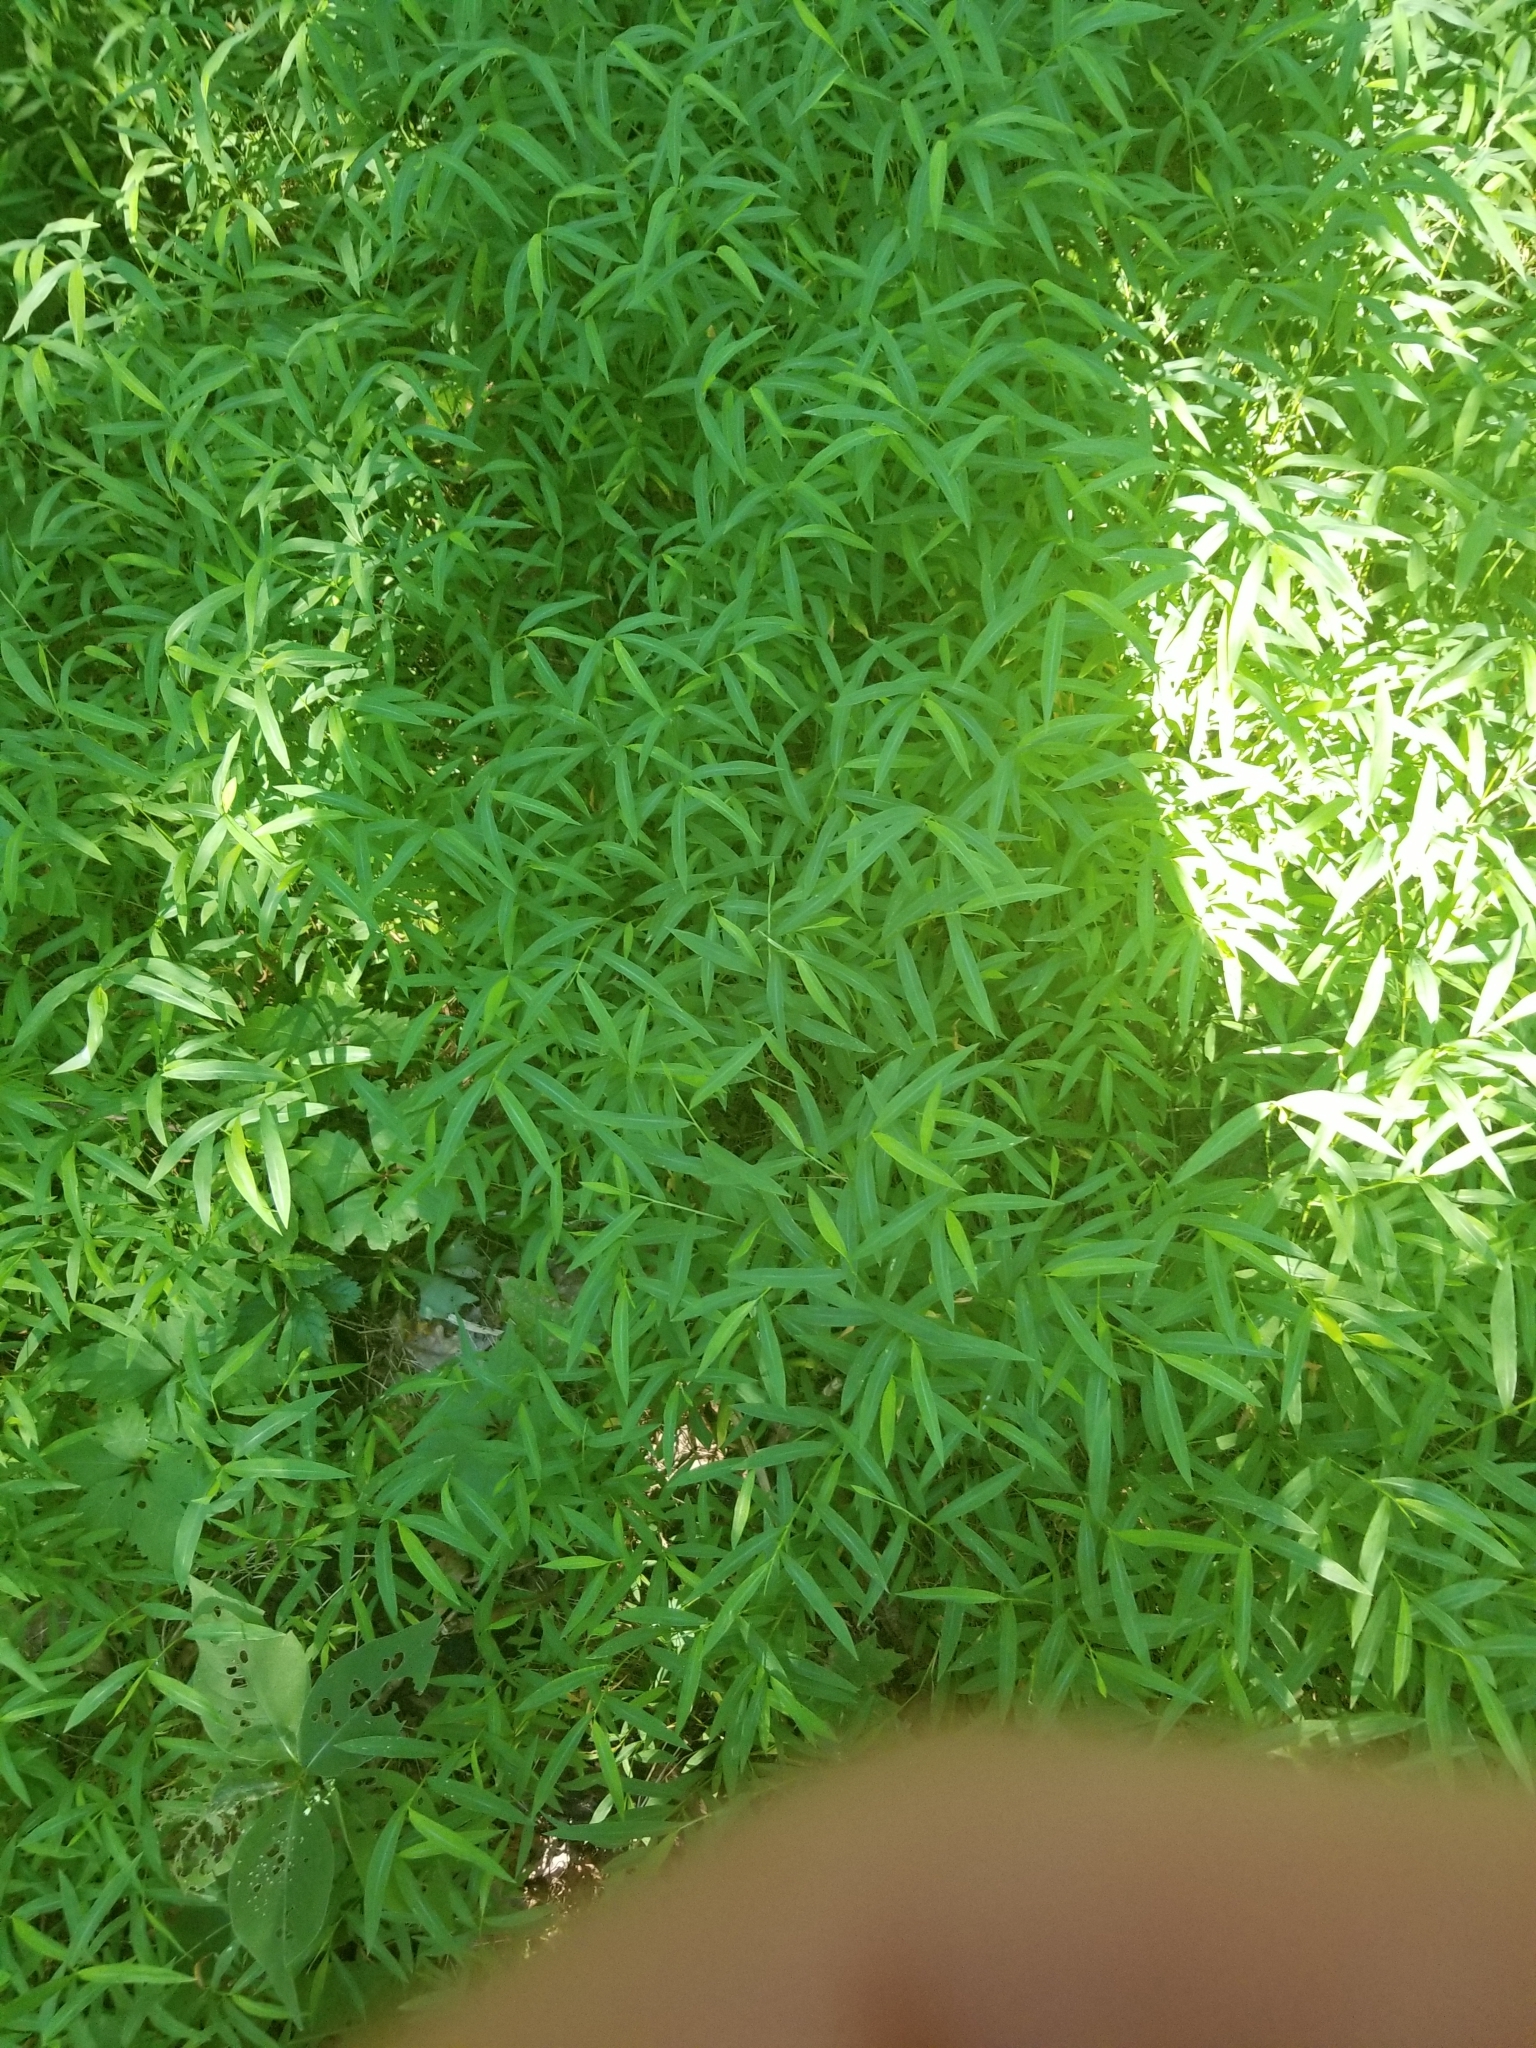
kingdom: Plantae
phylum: Tracheophyta
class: Liliopsida
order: Poales
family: Poaceae
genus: Microstegium
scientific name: Microstegium vimineum
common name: Japanese stiltgrass
